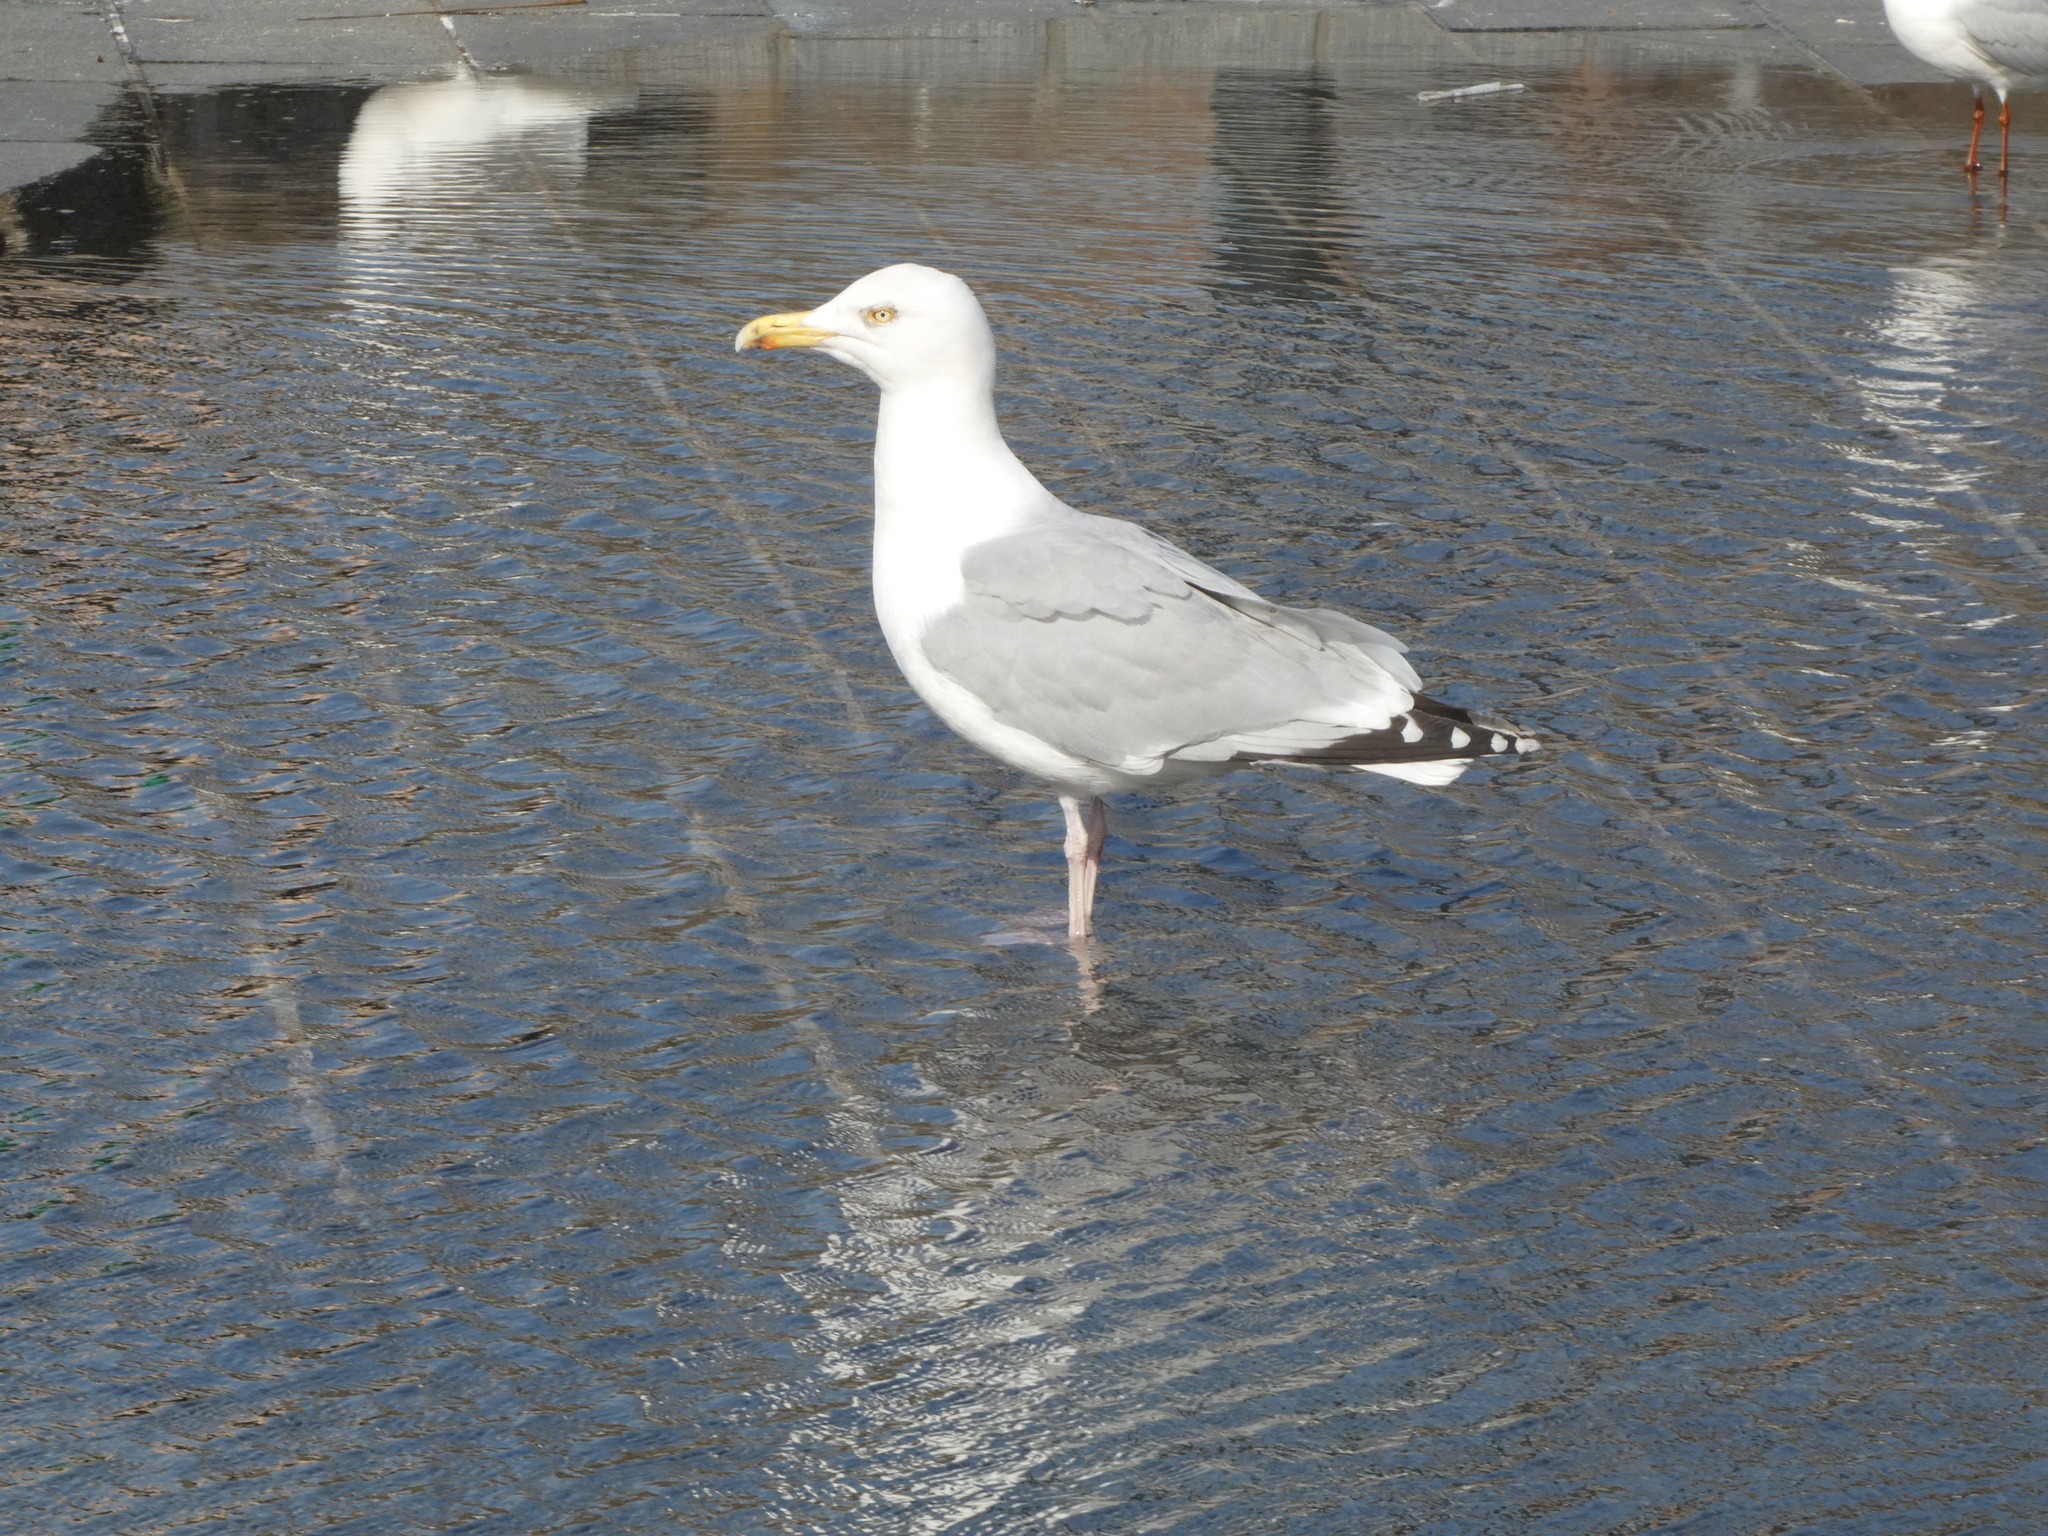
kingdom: Animalia
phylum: Chordata
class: Aves
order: Charadriiformes
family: Laridae
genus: Larus
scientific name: Larus argentatus
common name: Herring gull
